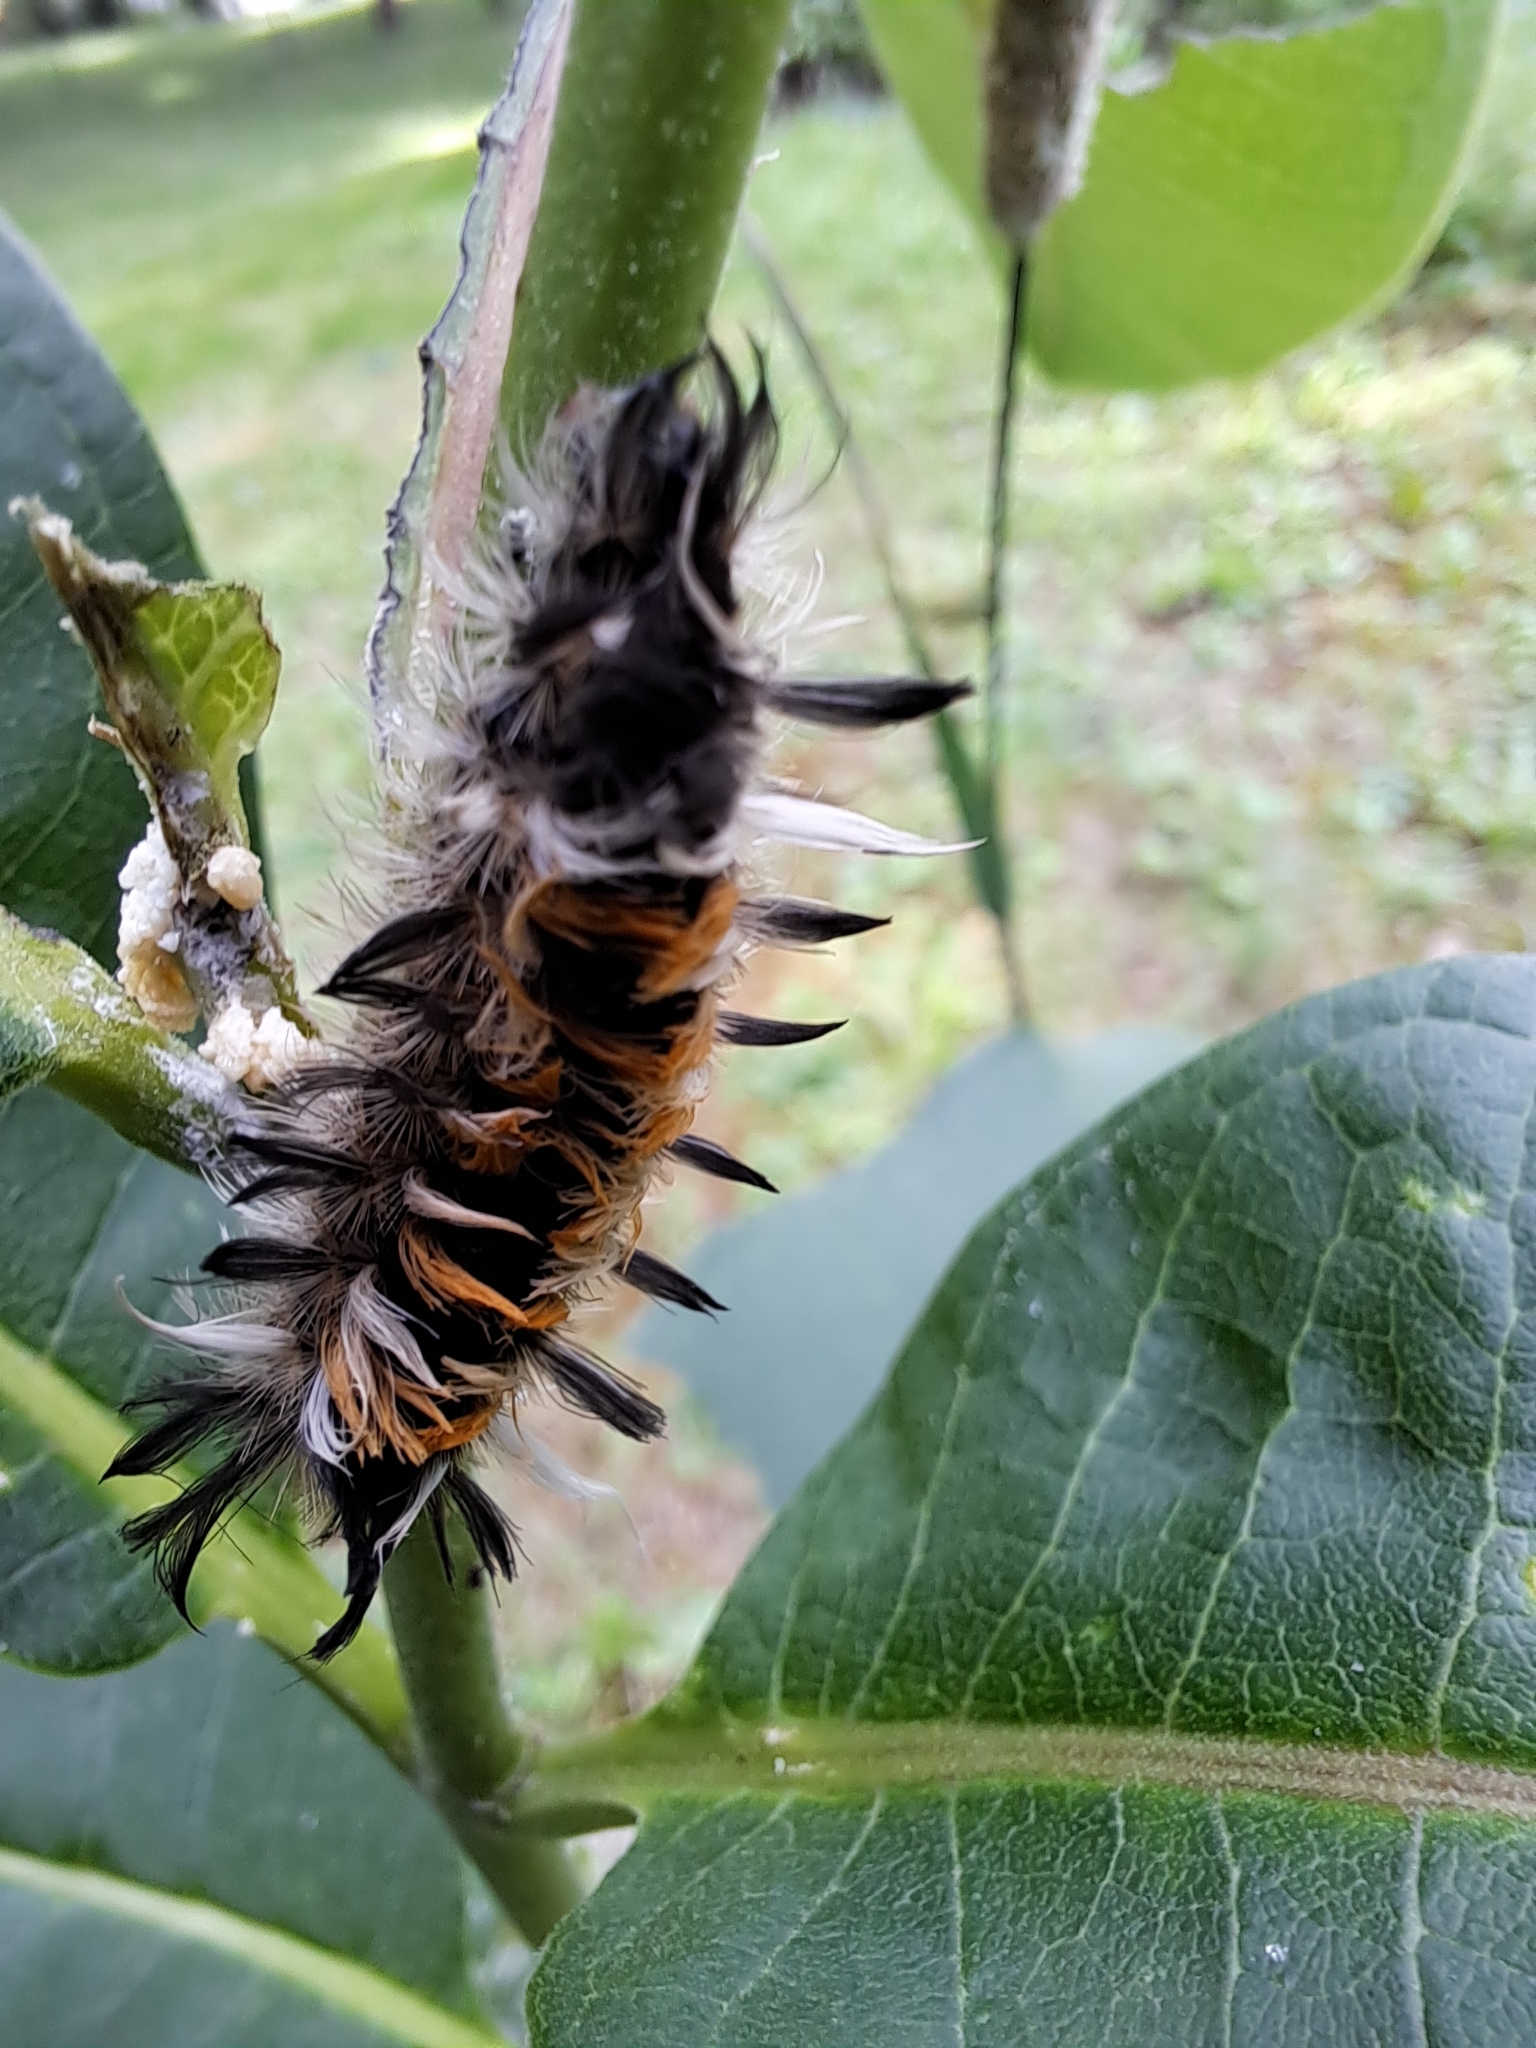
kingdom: Animalia
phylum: Arthropoda
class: Insecta
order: Lepidoptera
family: Erebidae
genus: Euchaetes
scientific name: Euchaetes egle
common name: Milkweed tussock moth
